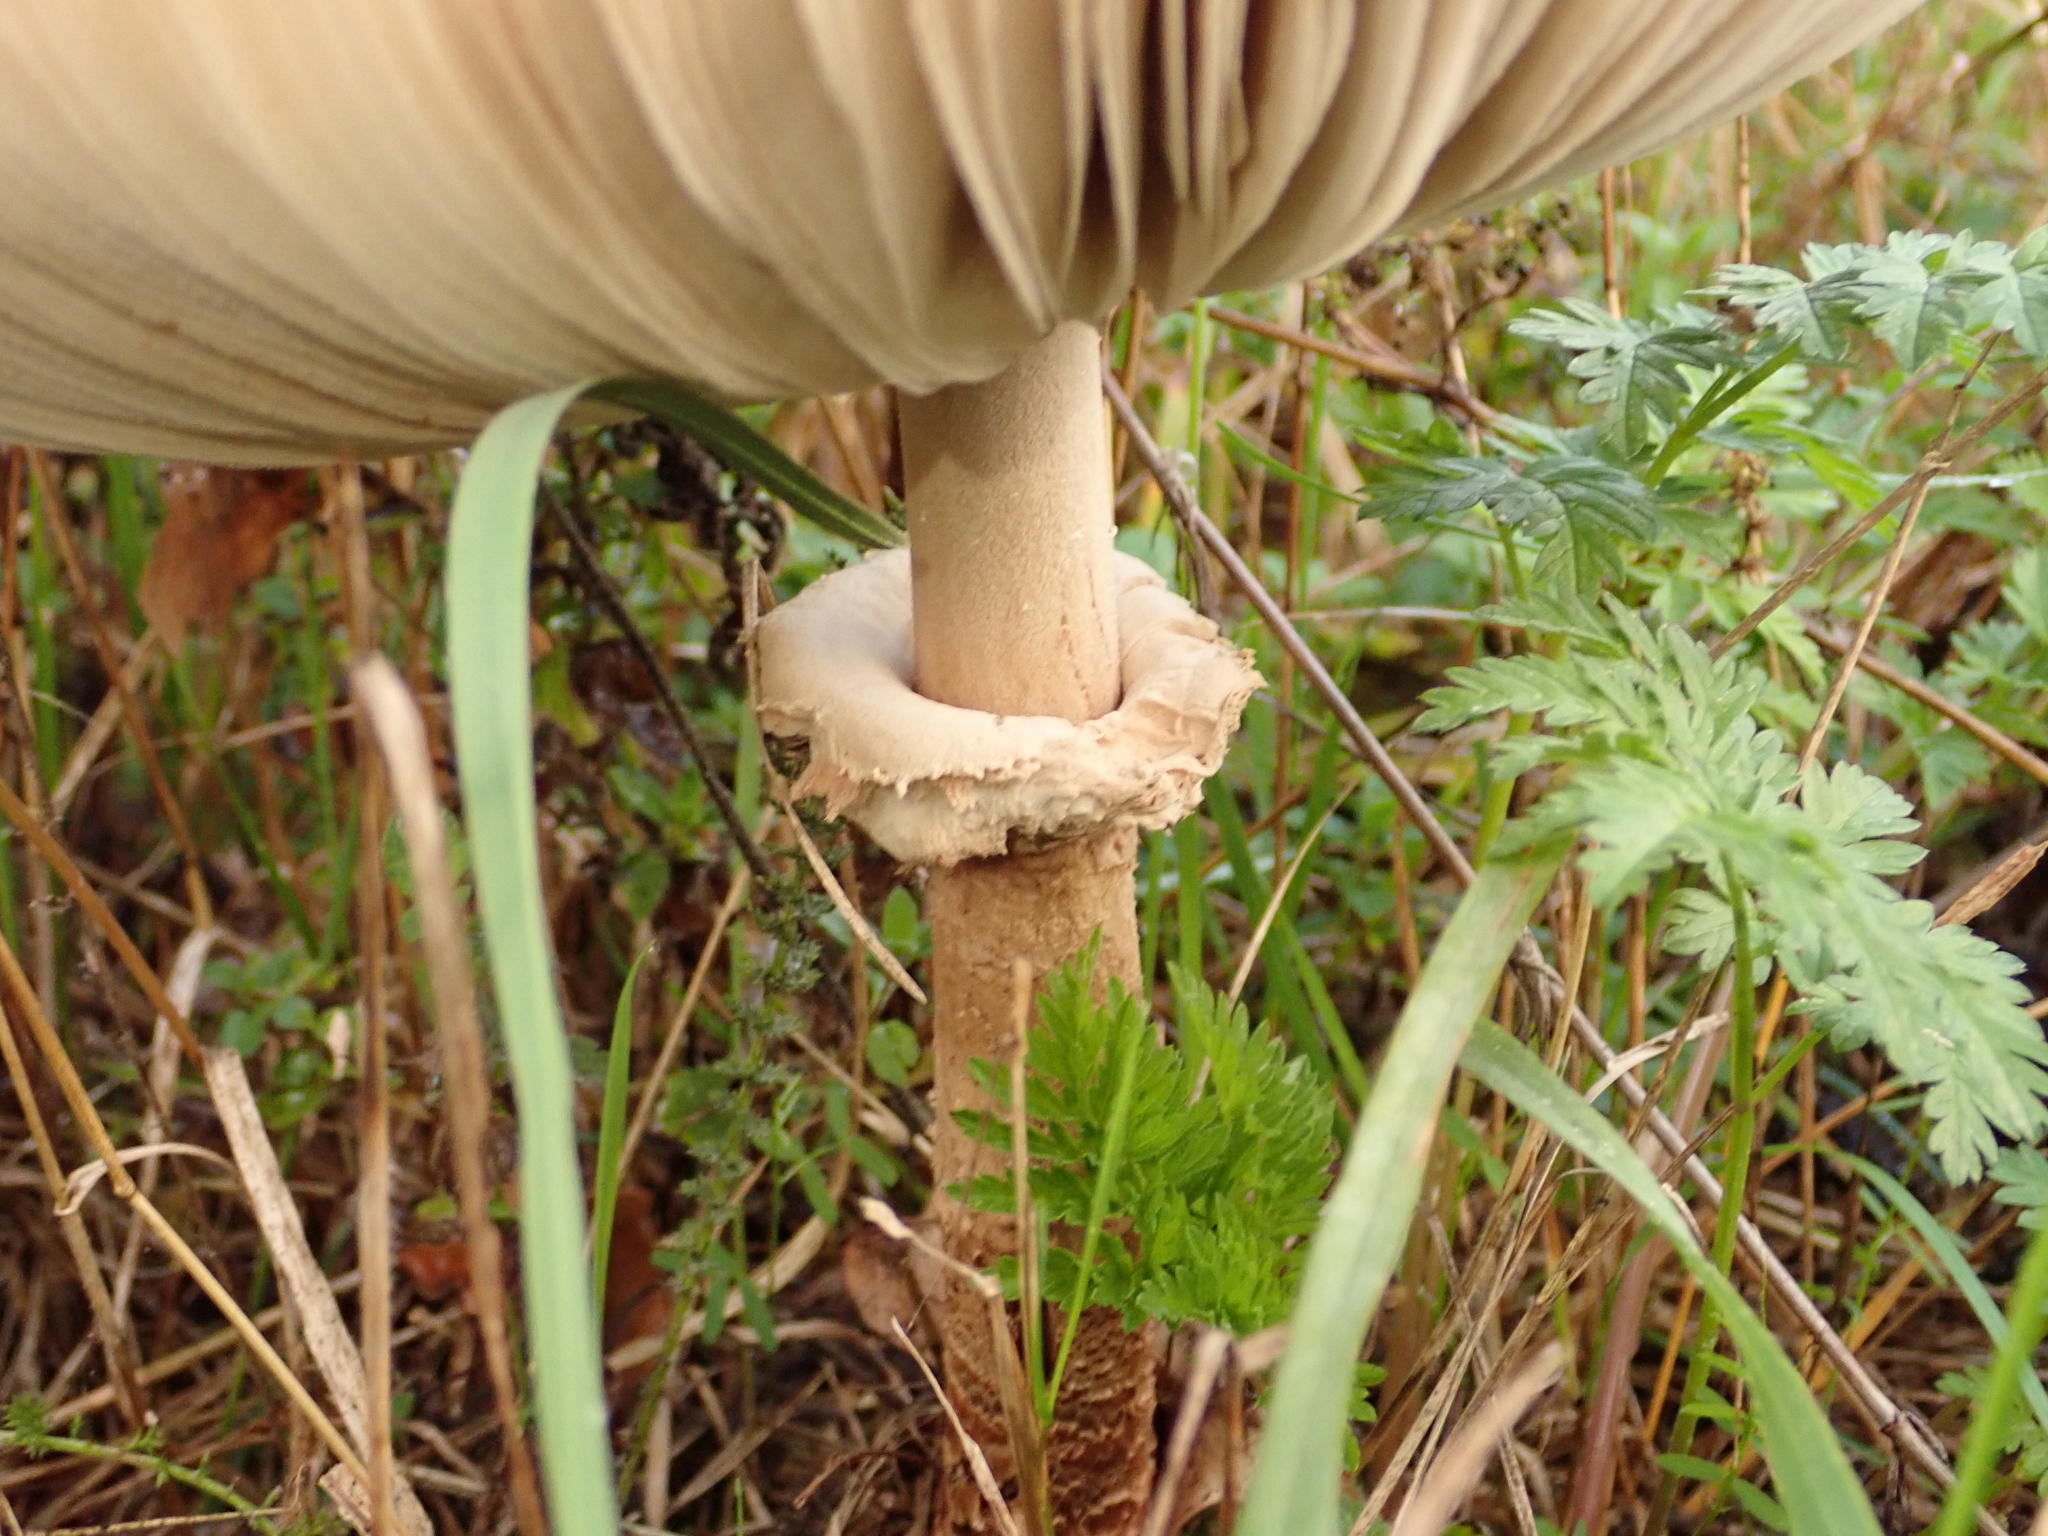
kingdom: Fungi
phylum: Basidiomycota
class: Agaricomycetes
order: Agaricales
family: Agaricaceae
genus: Macrolepiota
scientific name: Macrolepiota procera
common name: Parasol
